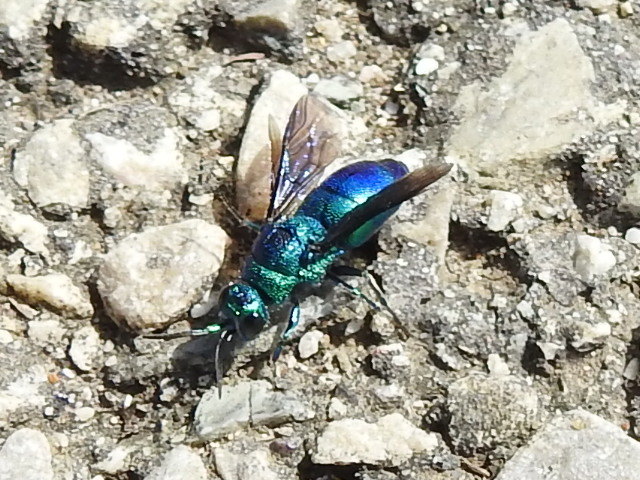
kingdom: Animalia
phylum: Arthropoda
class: Insecta
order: Hymenoptera
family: Chrysididae
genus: Chrysis
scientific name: Chrysis angolensis
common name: Cuckoo wasp
